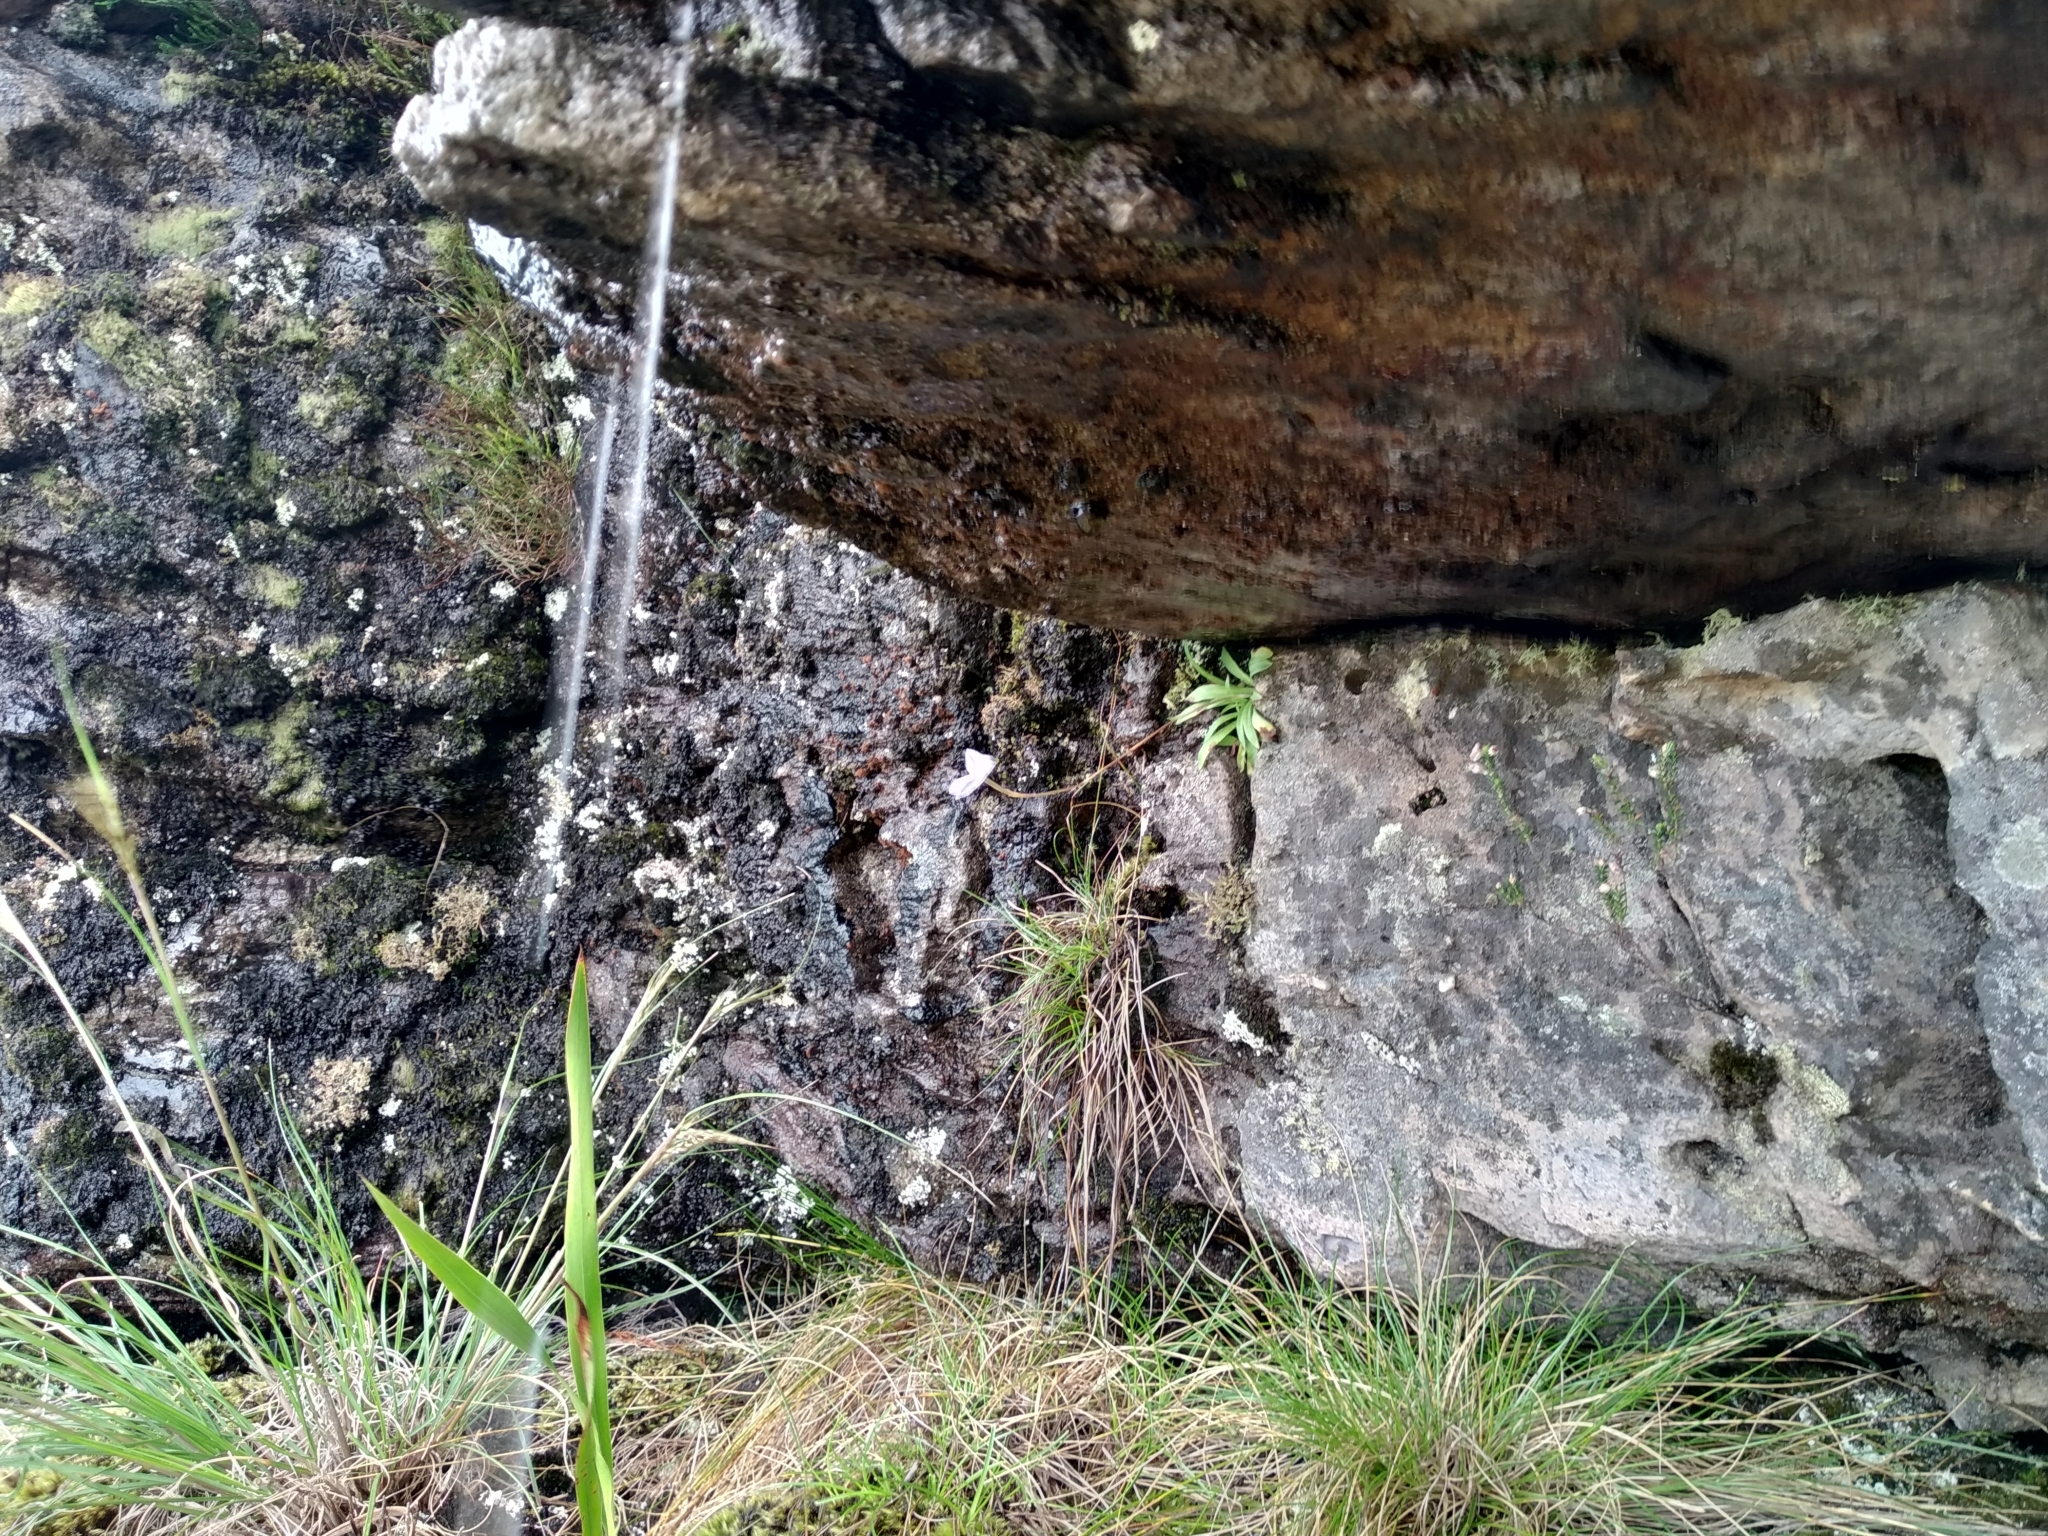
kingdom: Plantae
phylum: Tracheophyta
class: Liliopsida
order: Asparagales
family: Orchidaceae
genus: Disa
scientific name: Disa maculata
